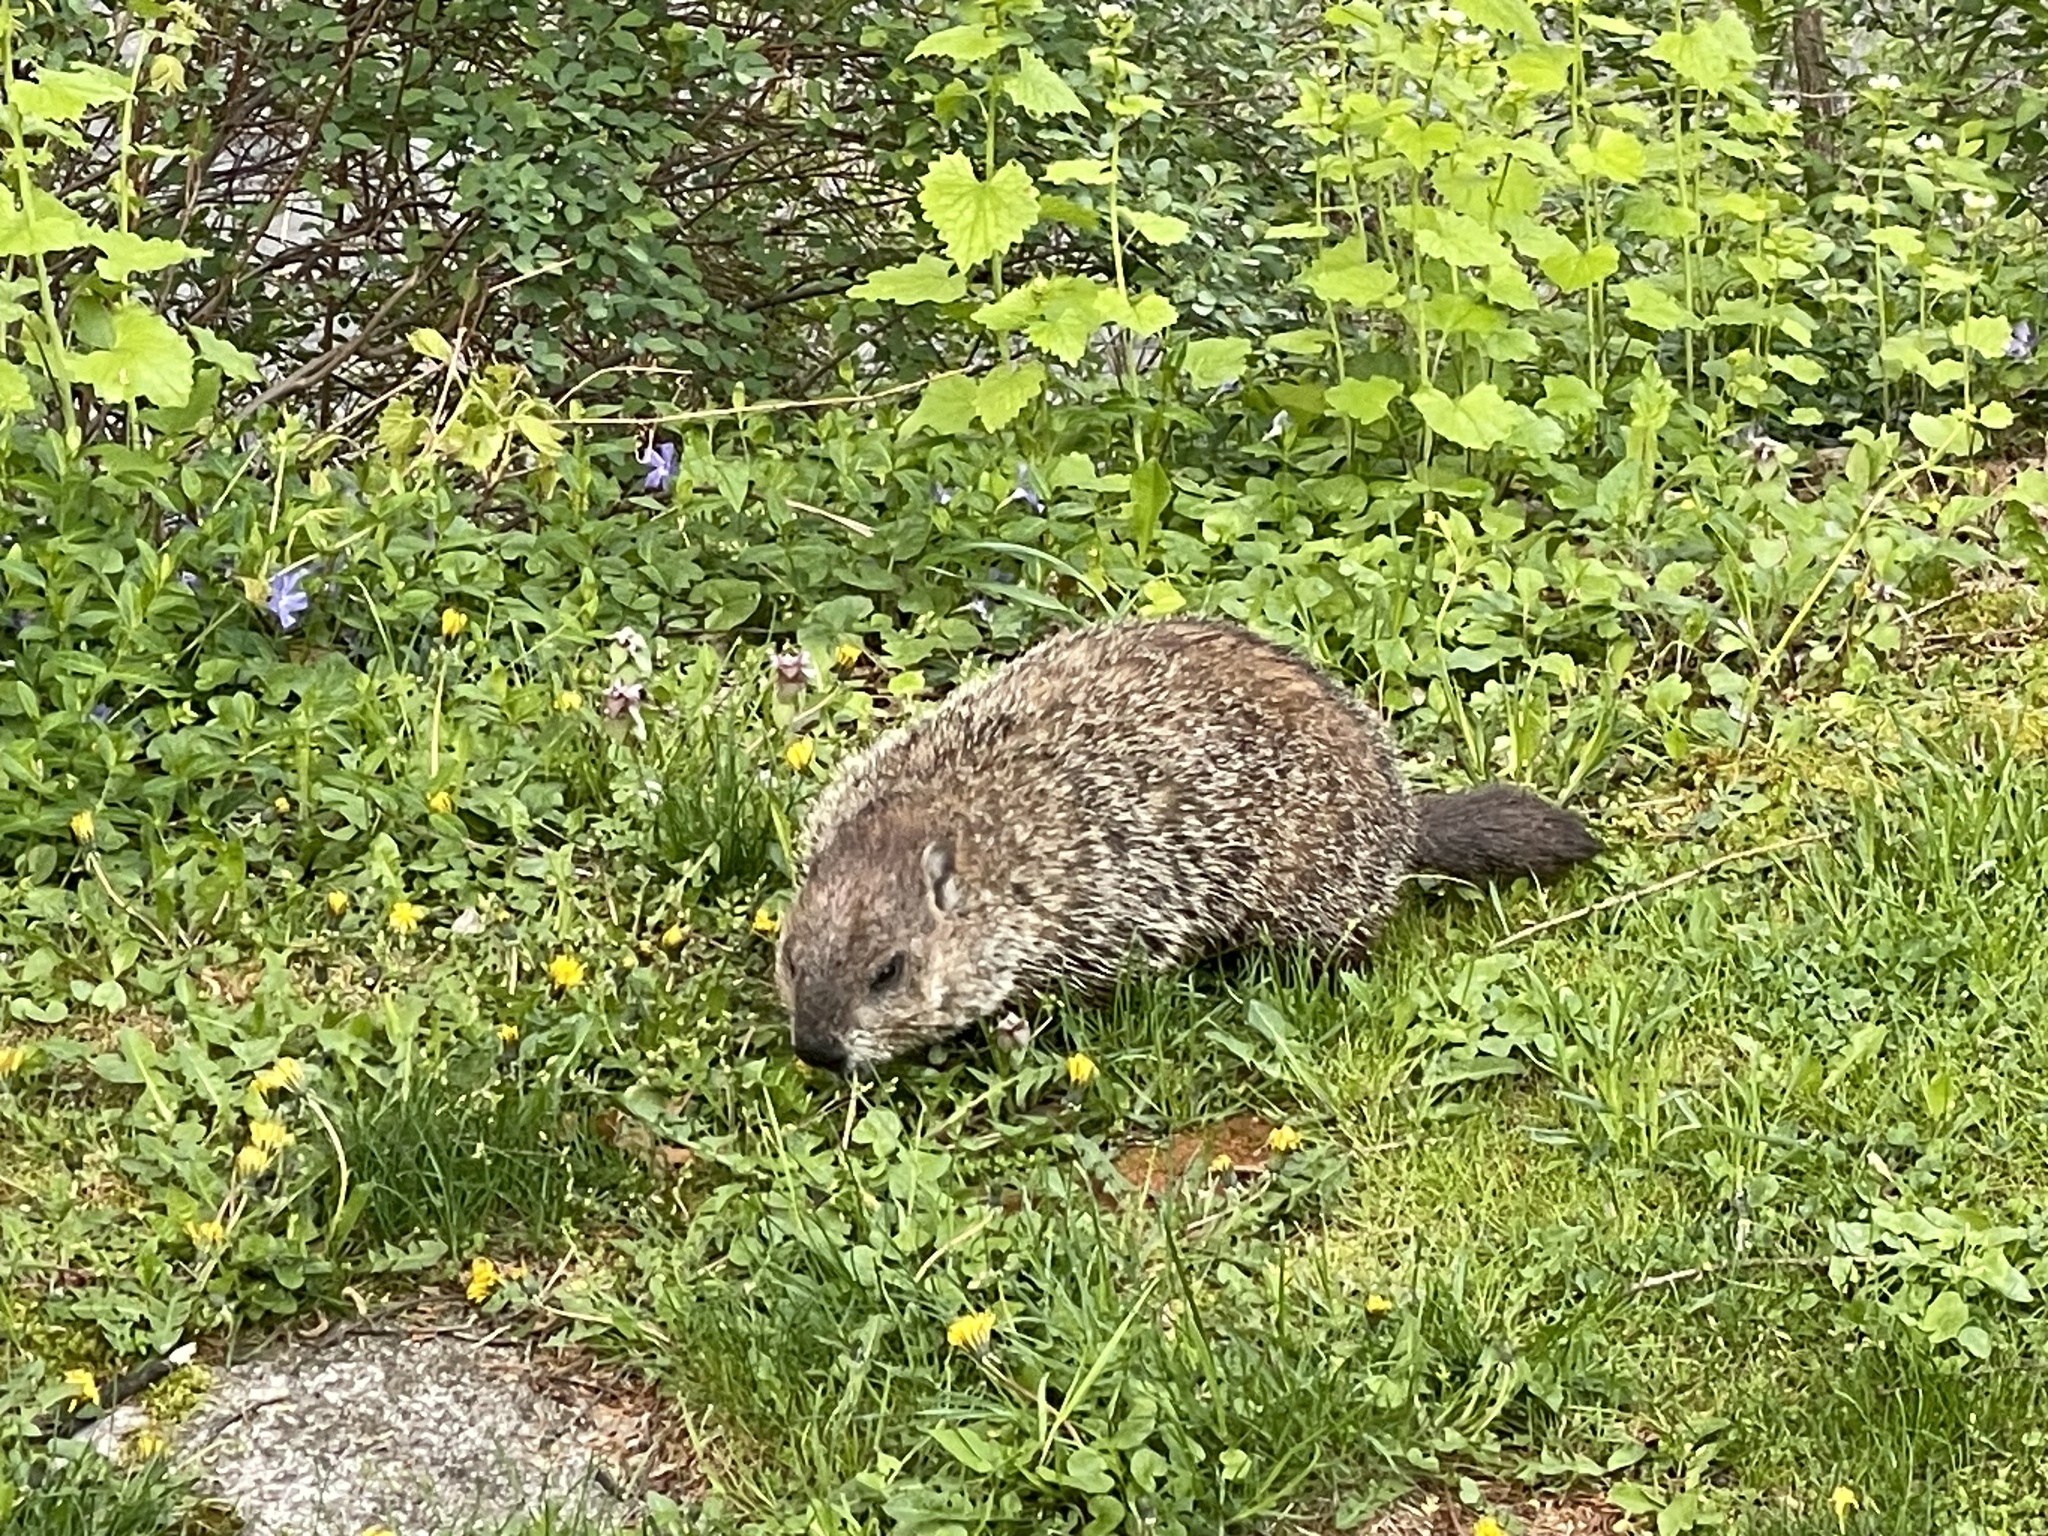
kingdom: Animalia
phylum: Chordata
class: Mammalia
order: Rodentia
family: Sciuridae
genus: Marmota
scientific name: Marmota monax
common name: Groundhog
